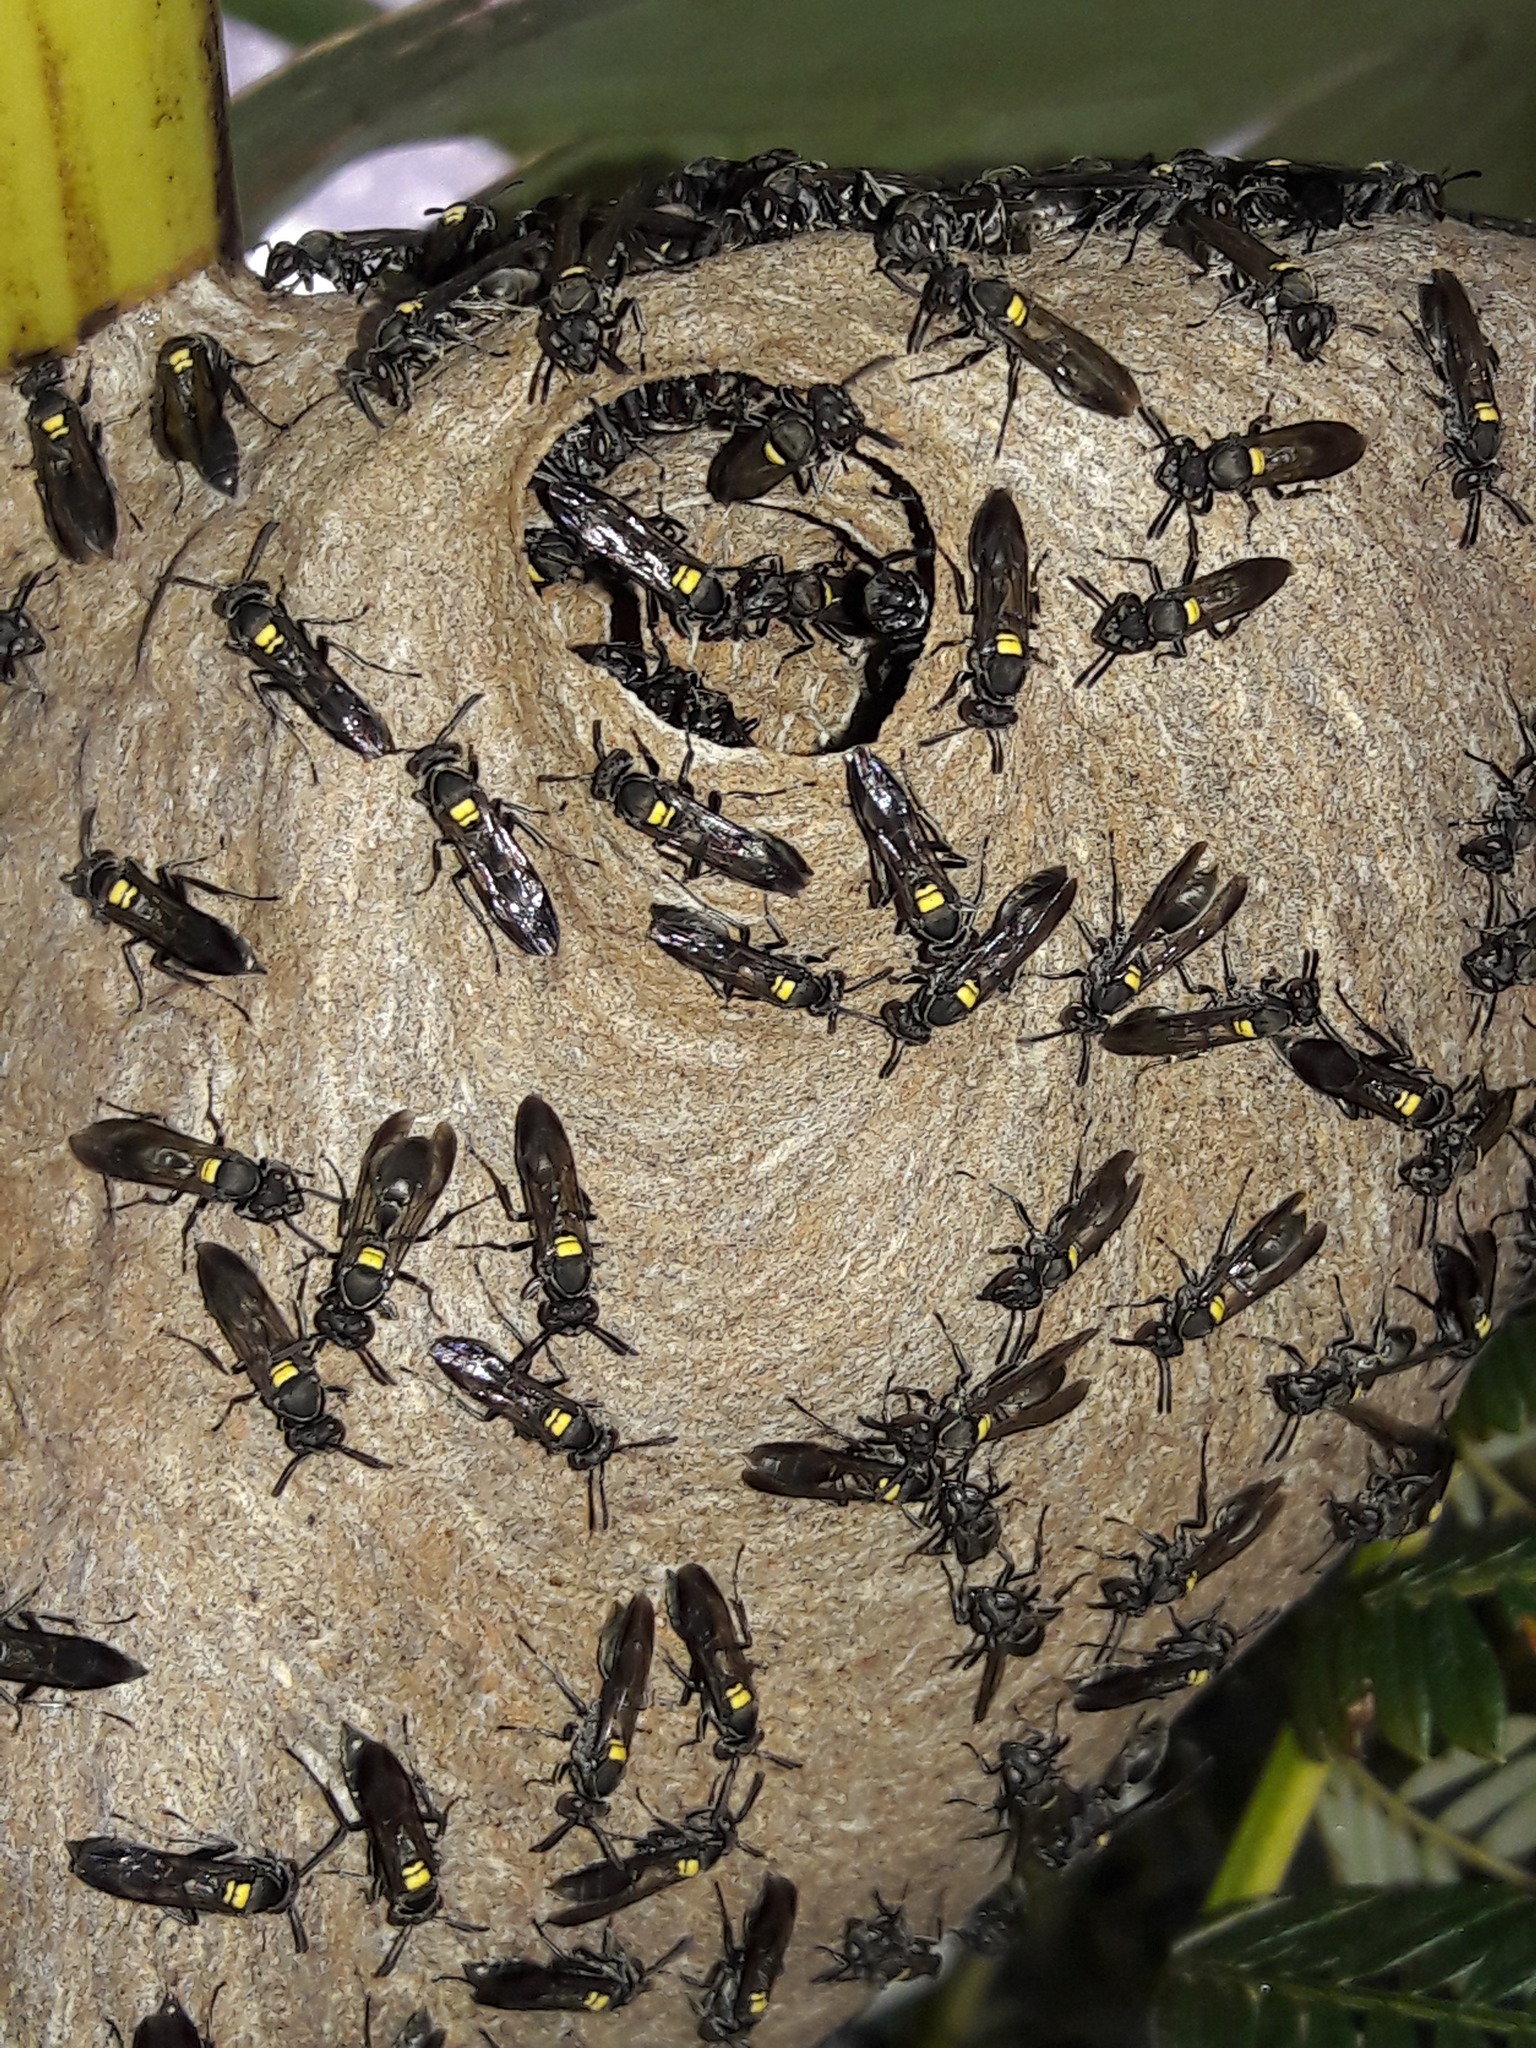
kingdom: Animalia
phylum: Arthropoda
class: Insecta
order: Hymenoptera
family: Eumenidae
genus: Polybia
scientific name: Polybia paulista
